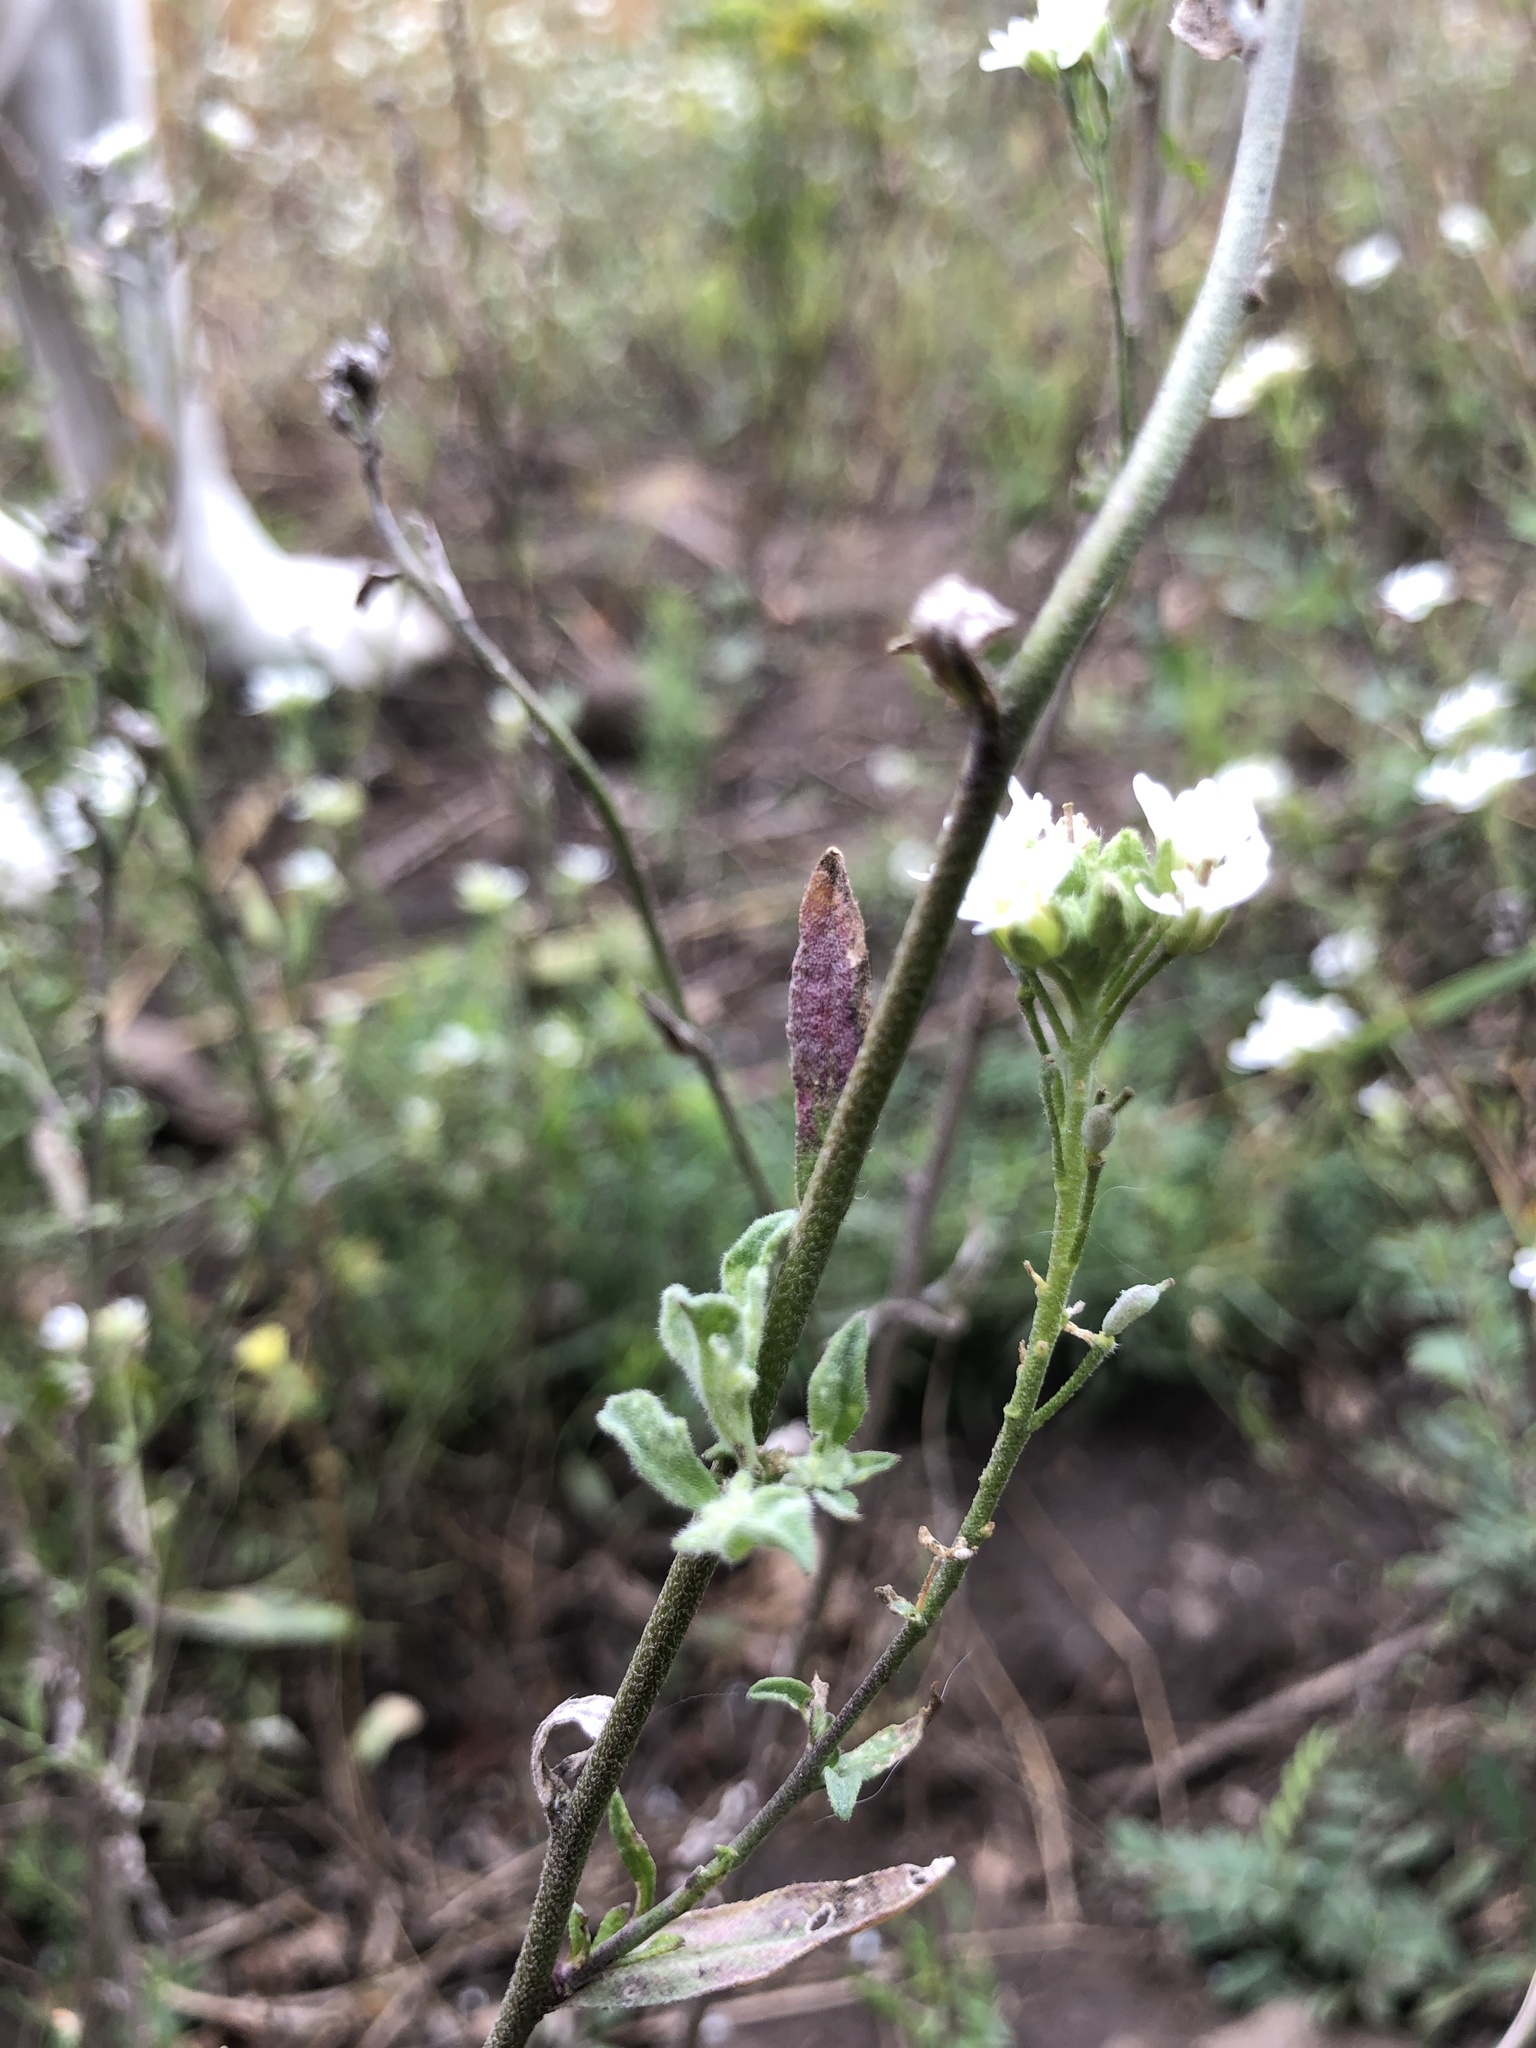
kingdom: Plantae
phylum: Tracheophyta
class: Magnoliopsida
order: Brassicales
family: Brassicaceae
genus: Berteroa
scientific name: Berteroa incana
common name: Hoary alison
